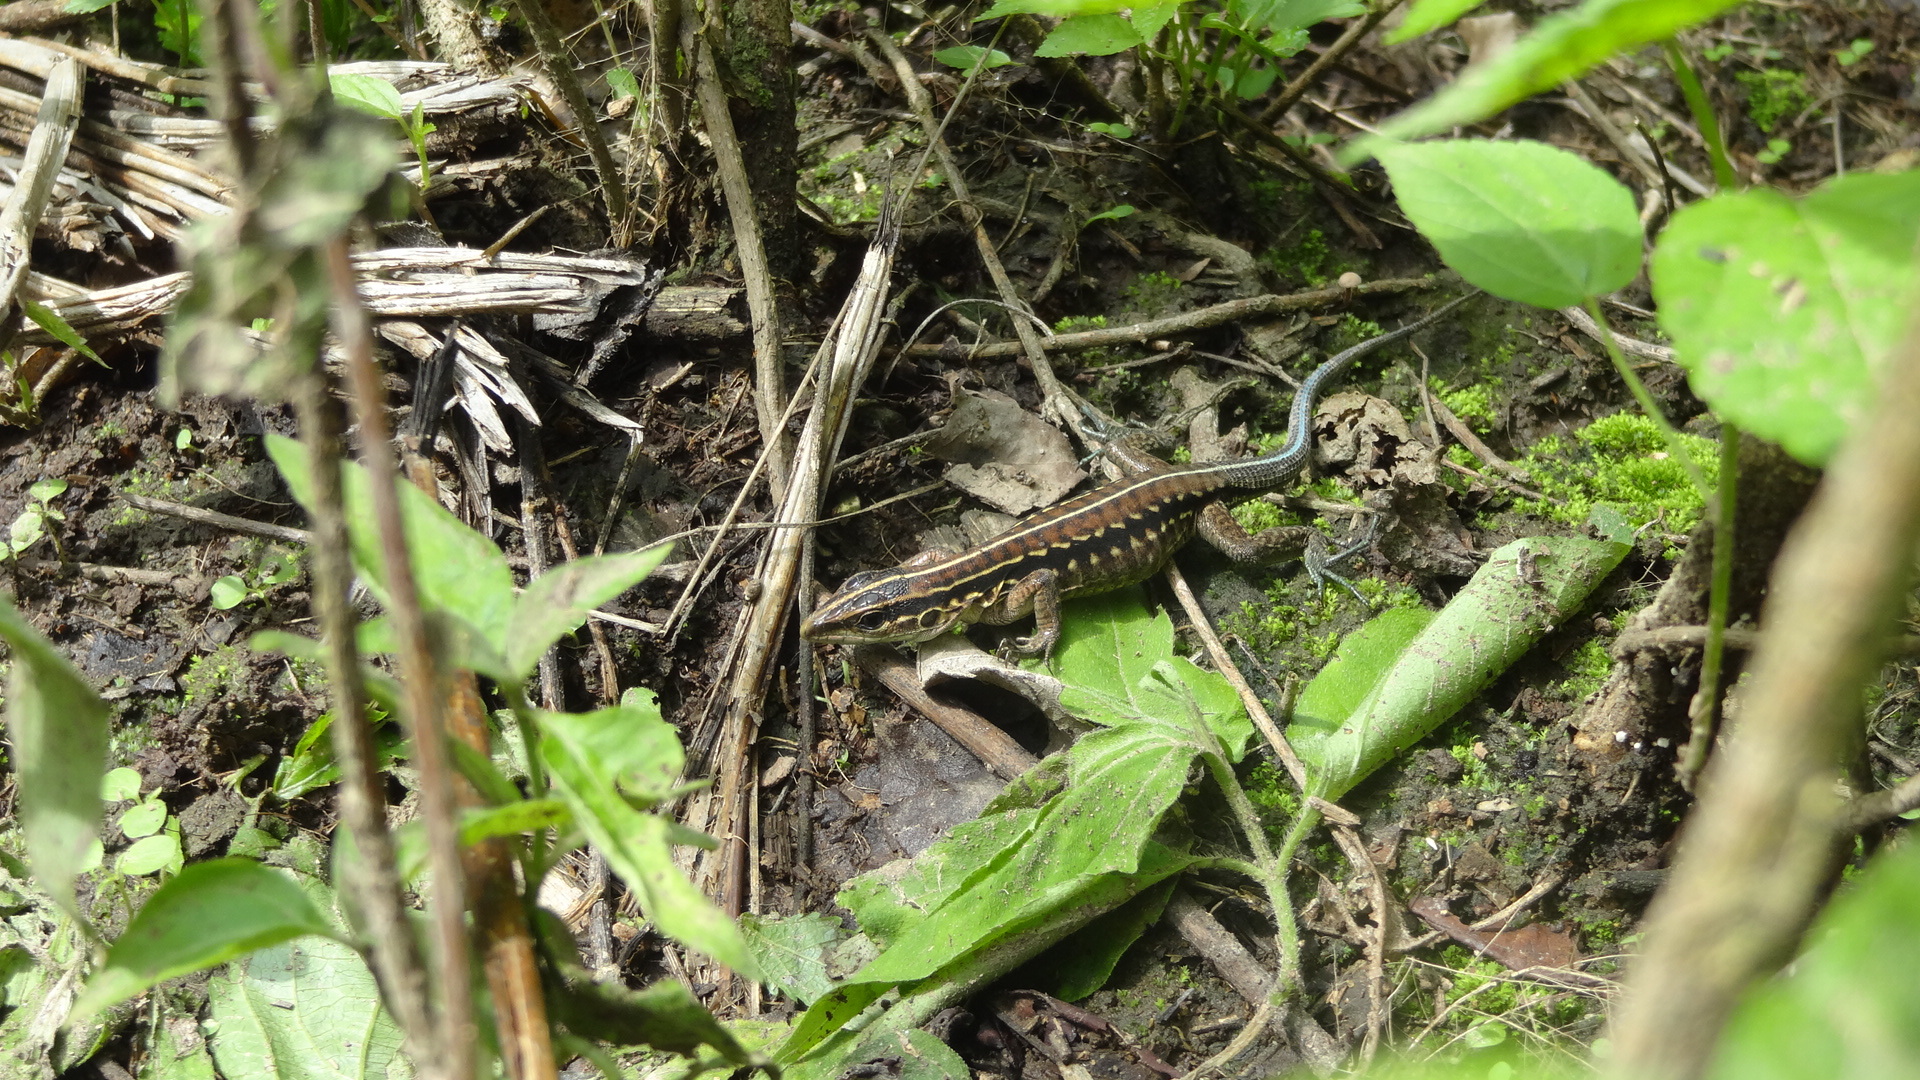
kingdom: Animalia
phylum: Chordata
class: Squamata
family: Teiidae
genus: Holcosus
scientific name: Holcosus septemlineatus
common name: Seven-lined ameiva
